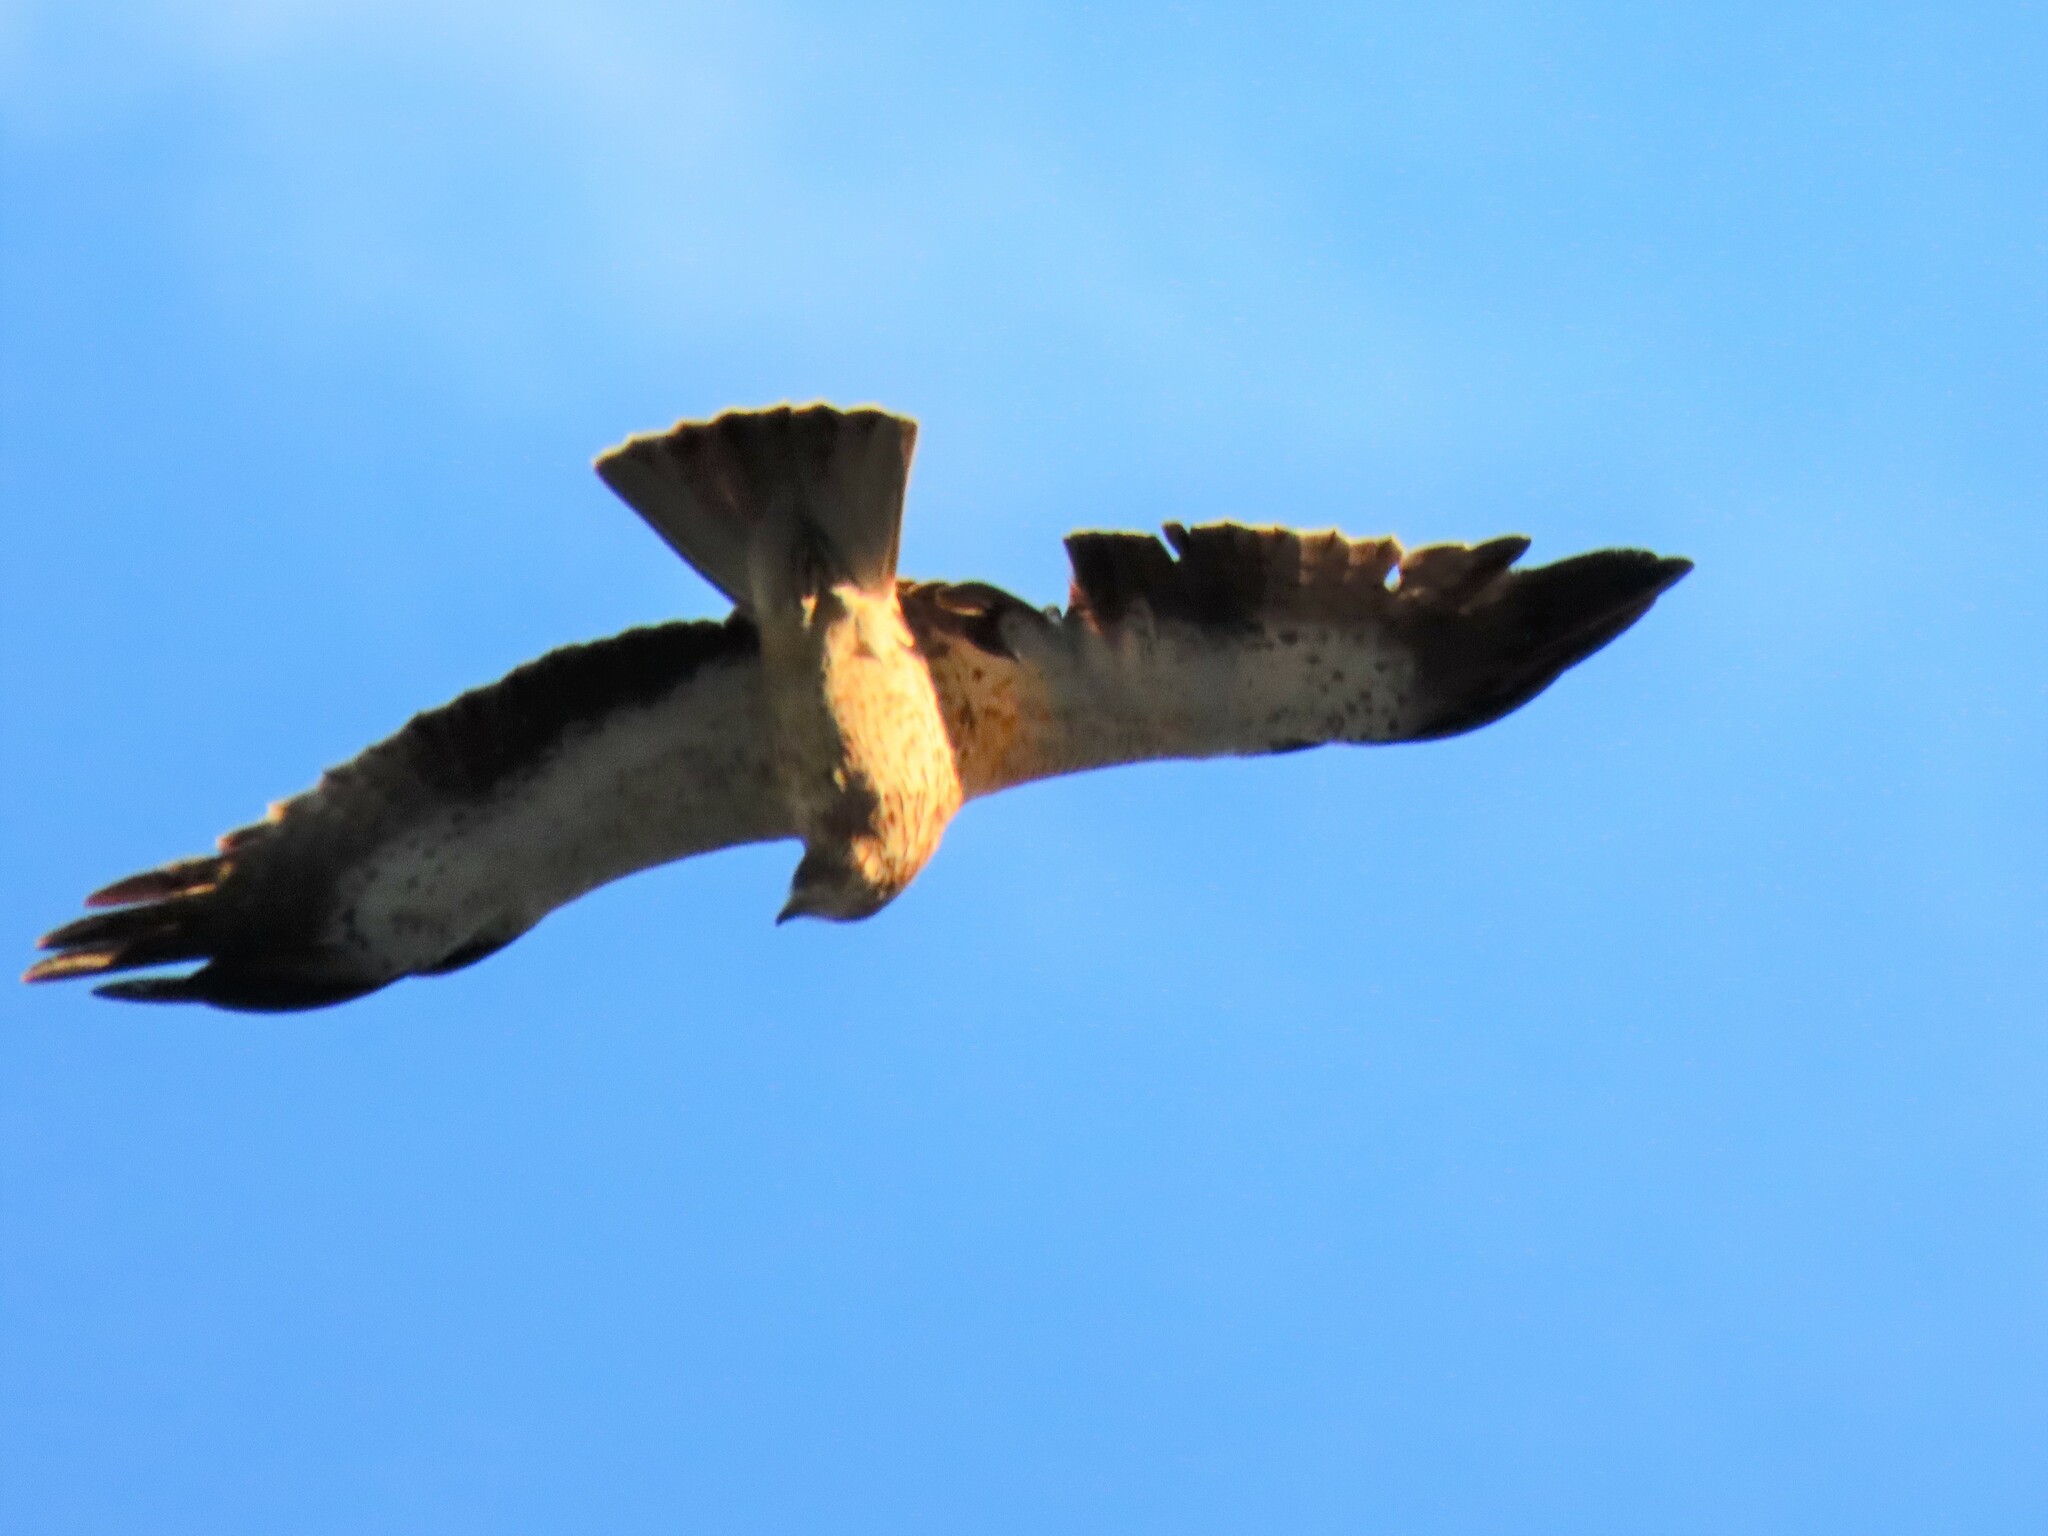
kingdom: Animalia
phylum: Chordata
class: Aves
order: Accipitriformes
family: Accipitridae
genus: Hieraaetus
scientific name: Hieraaetus pennatus
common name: Booted eagle
